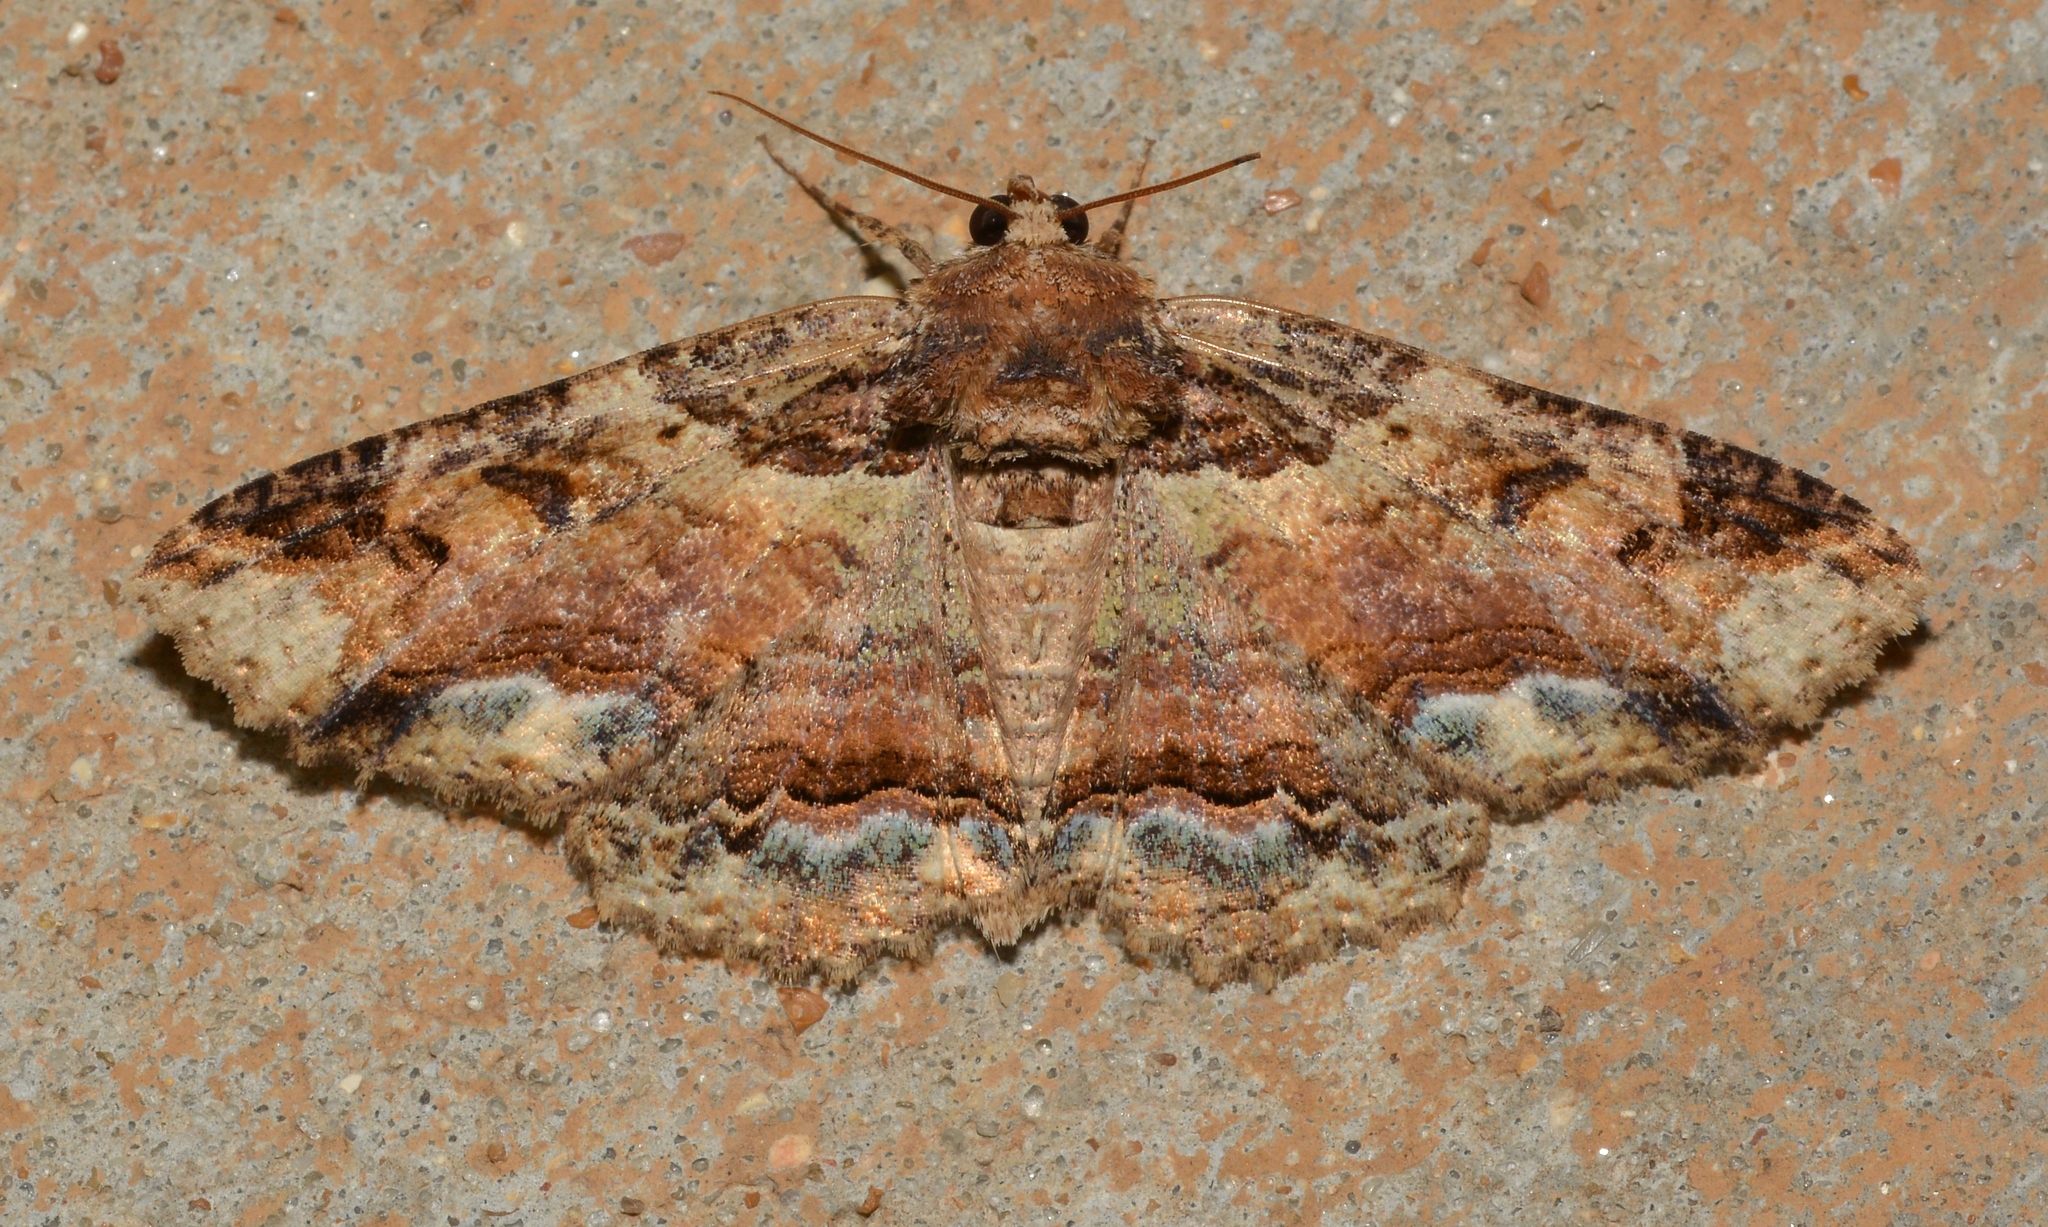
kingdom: Animalia
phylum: Arthropoda
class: Insecta
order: Lepidoptera
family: Erebidae
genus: Zale
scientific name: Zale minerea
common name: Colorful zale moth
